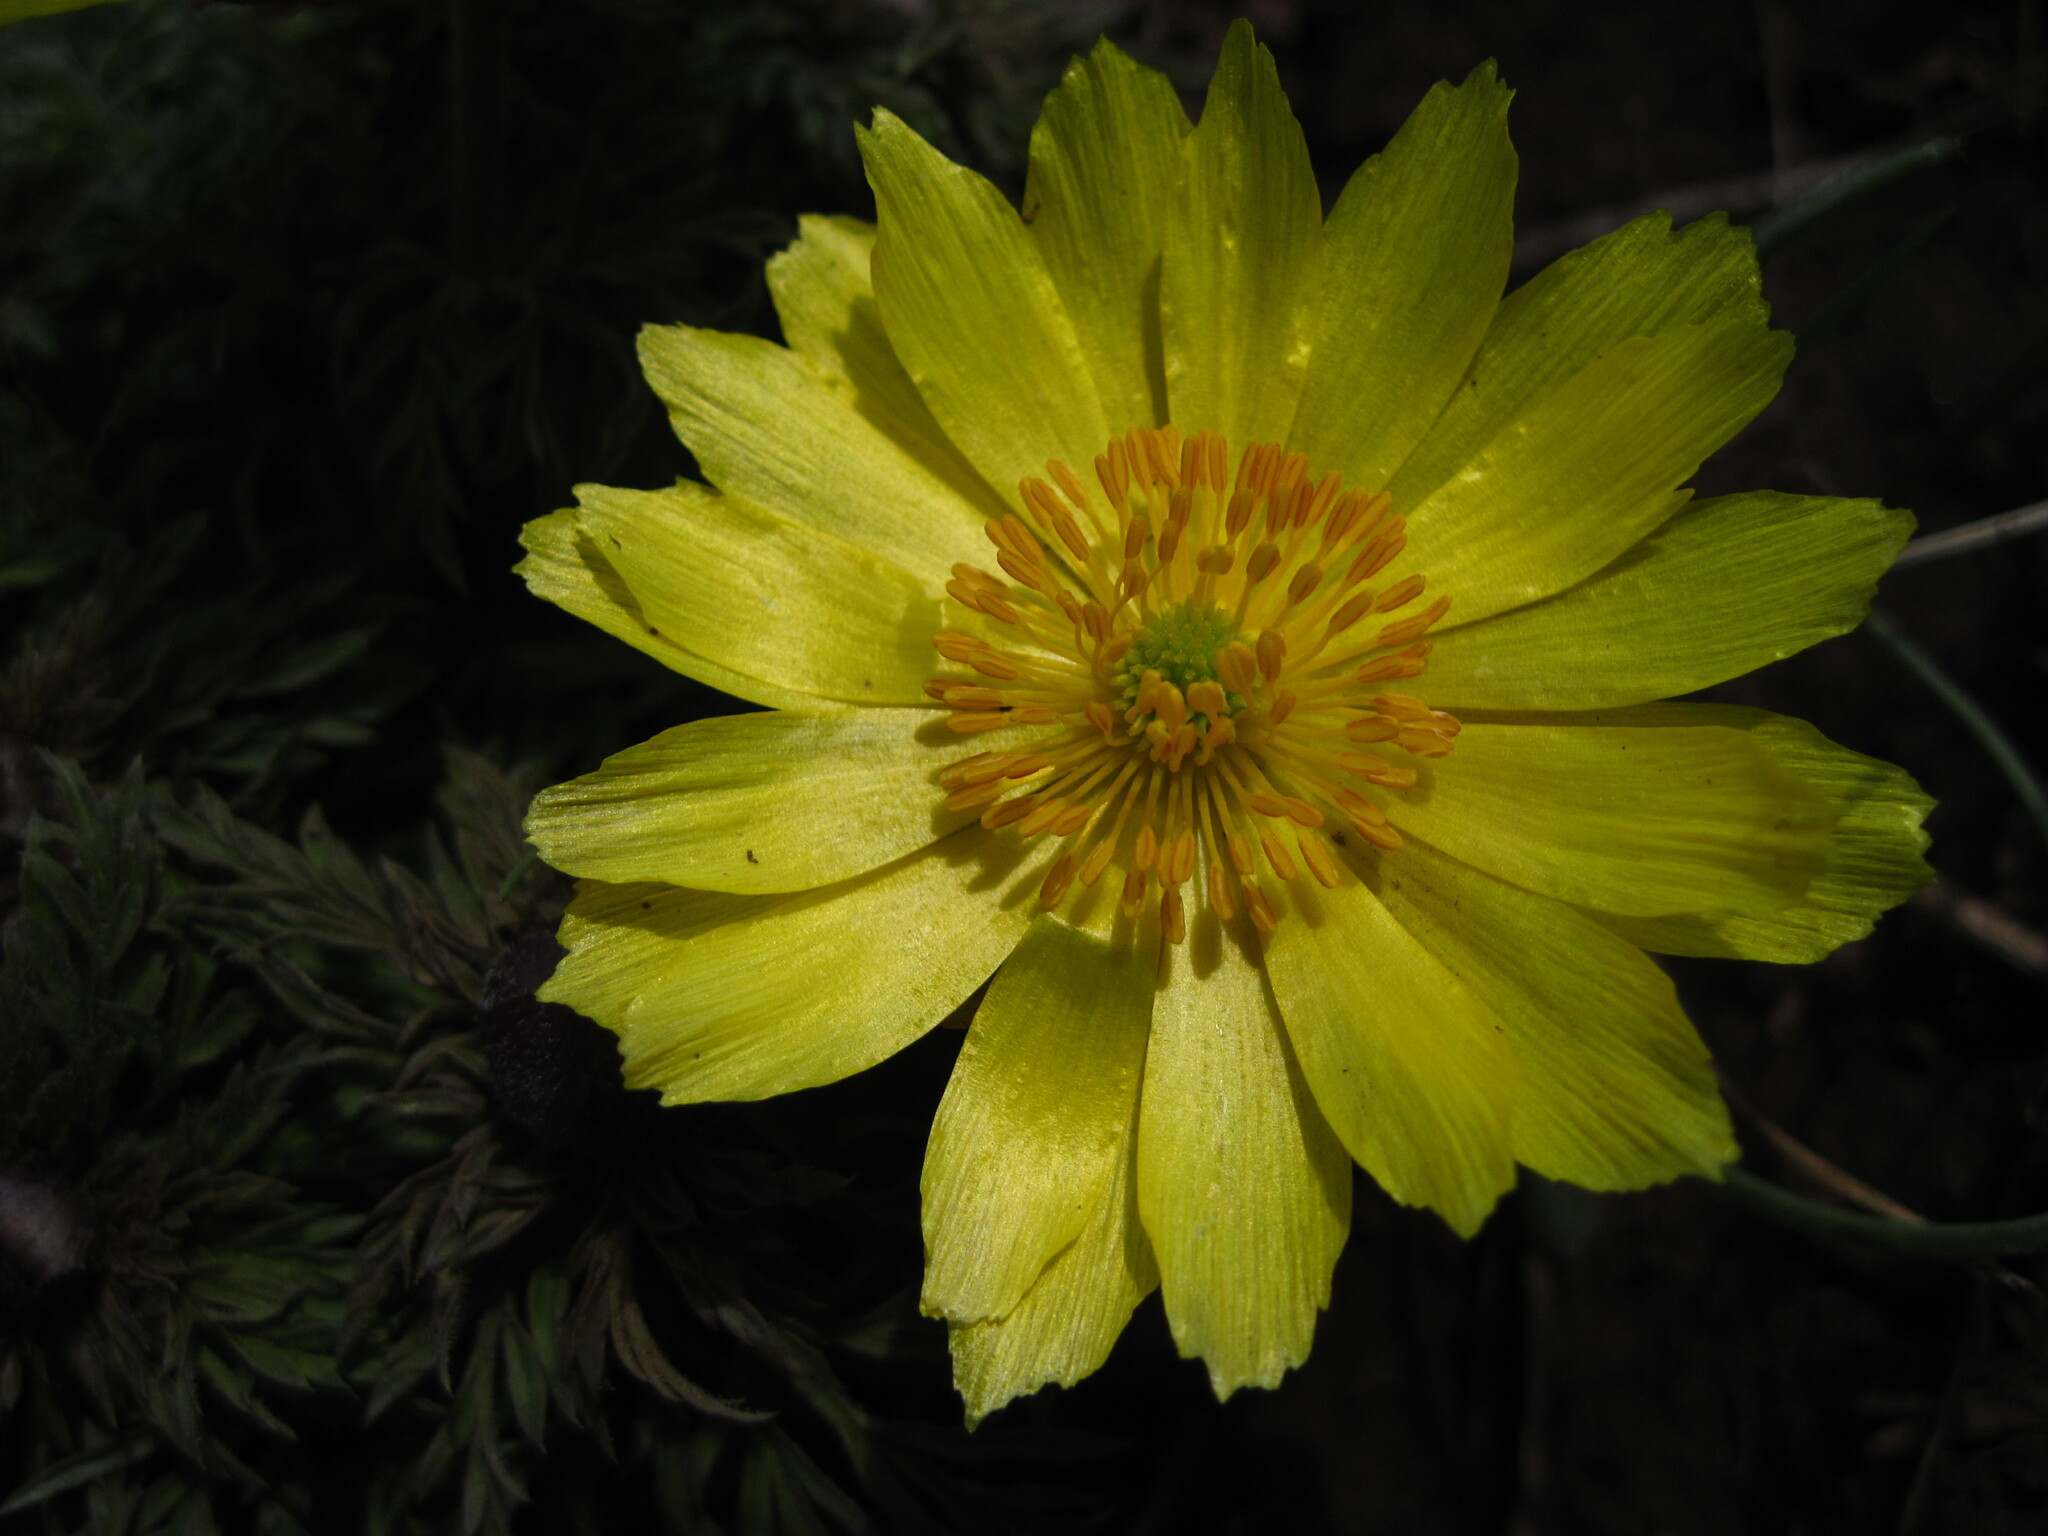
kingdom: Plantae
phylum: Tracheophyta
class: Magnoliopsida
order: Ranunculales
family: Ranunculaceae
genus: Adonis
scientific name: Adonis volgensis
